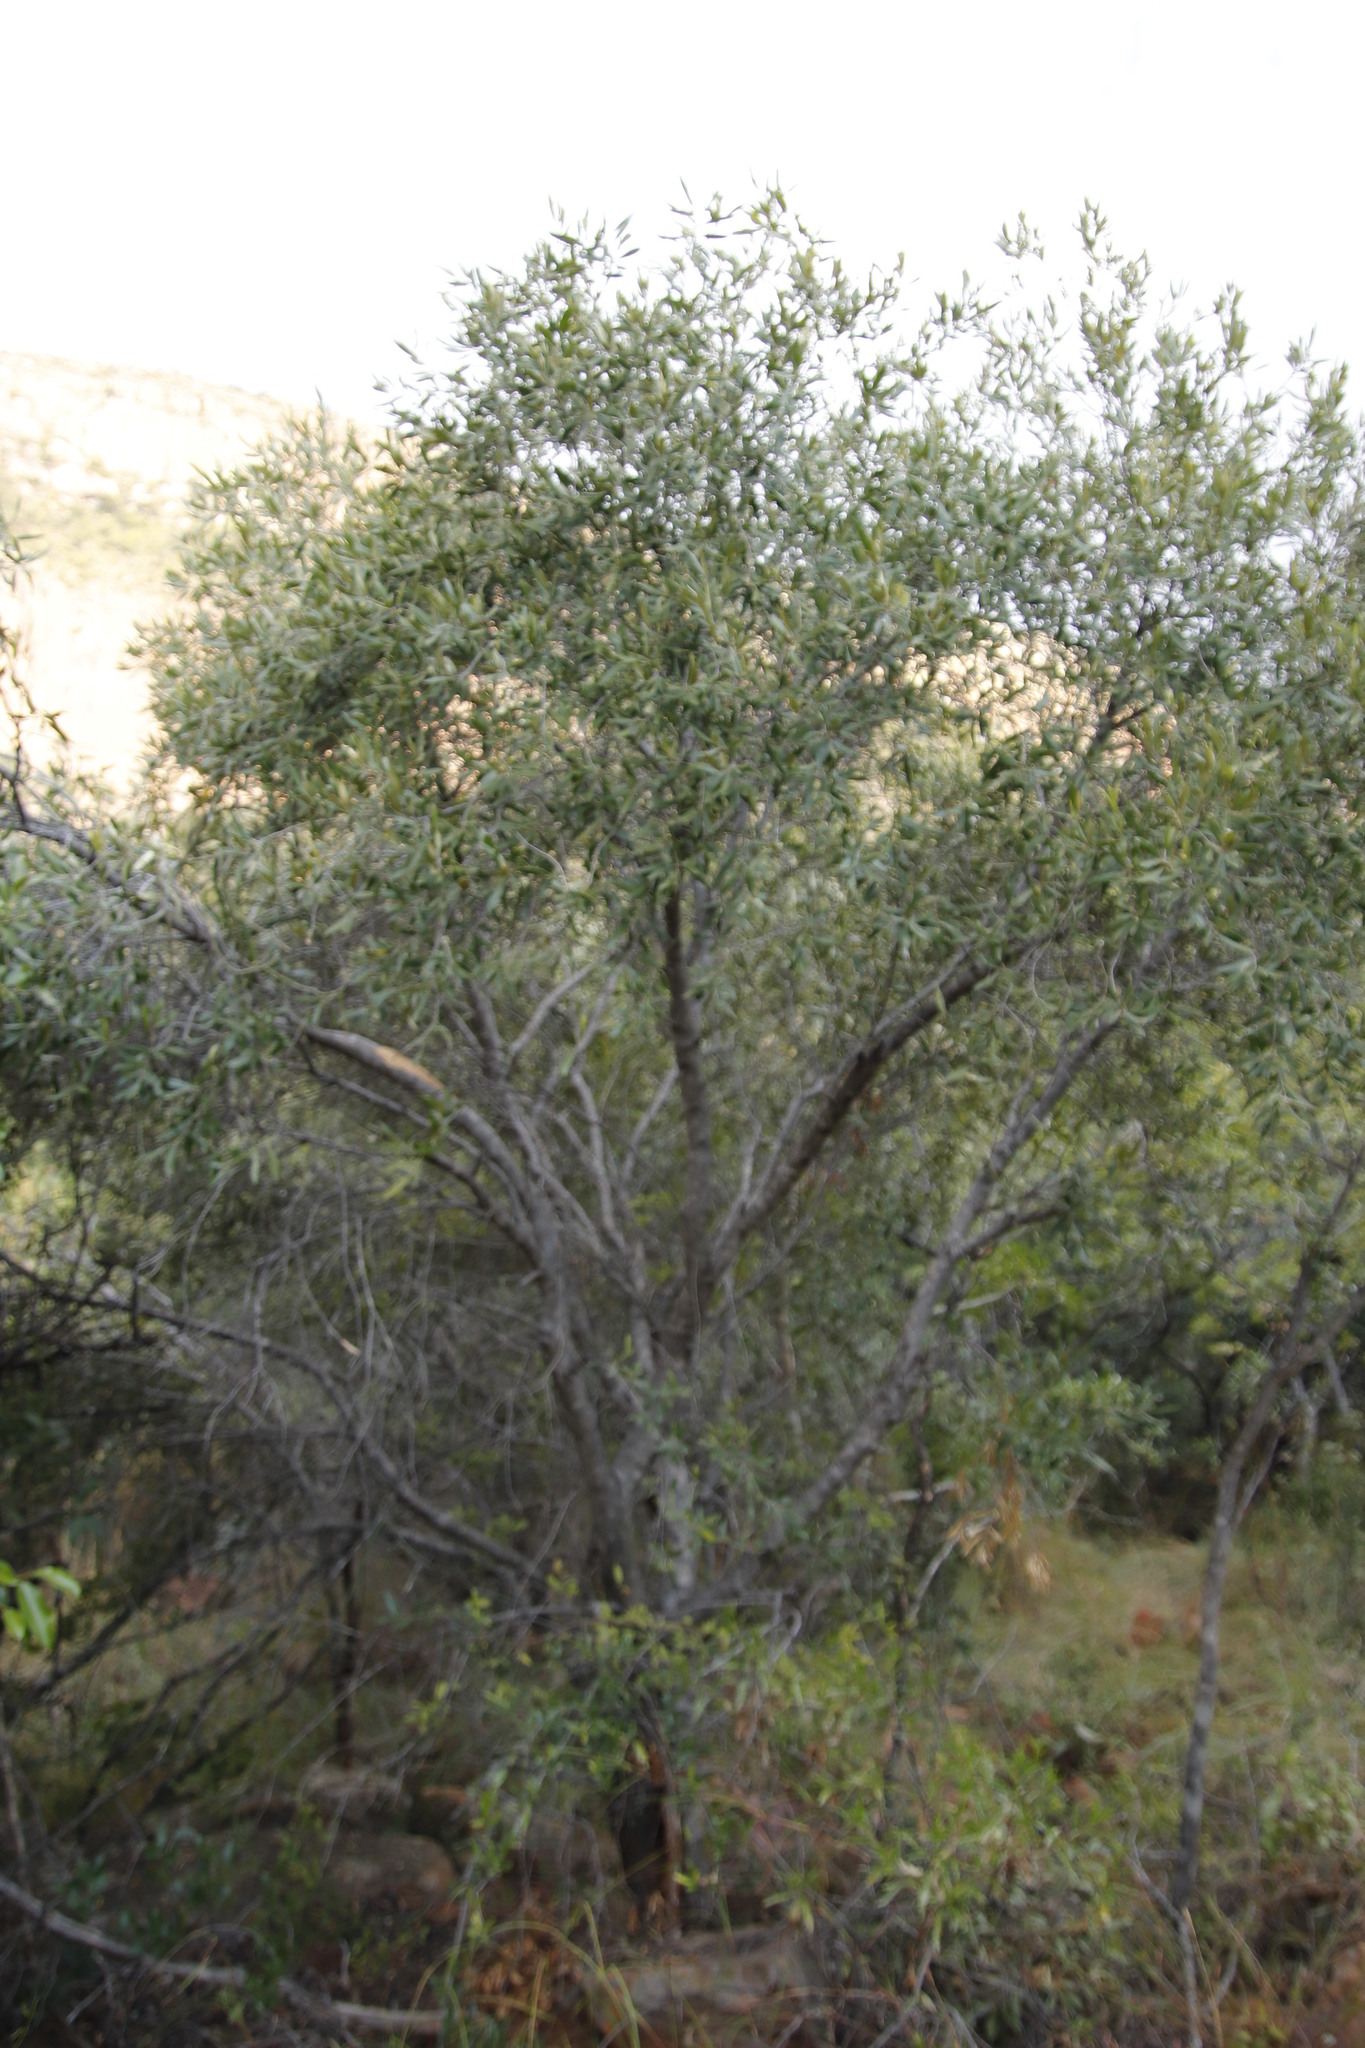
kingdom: Plantae
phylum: Tracheophyta
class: Magnoliopsida
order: Lamiales
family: Oleaceae
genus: Olea
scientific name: Olea europaea
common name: Olive
